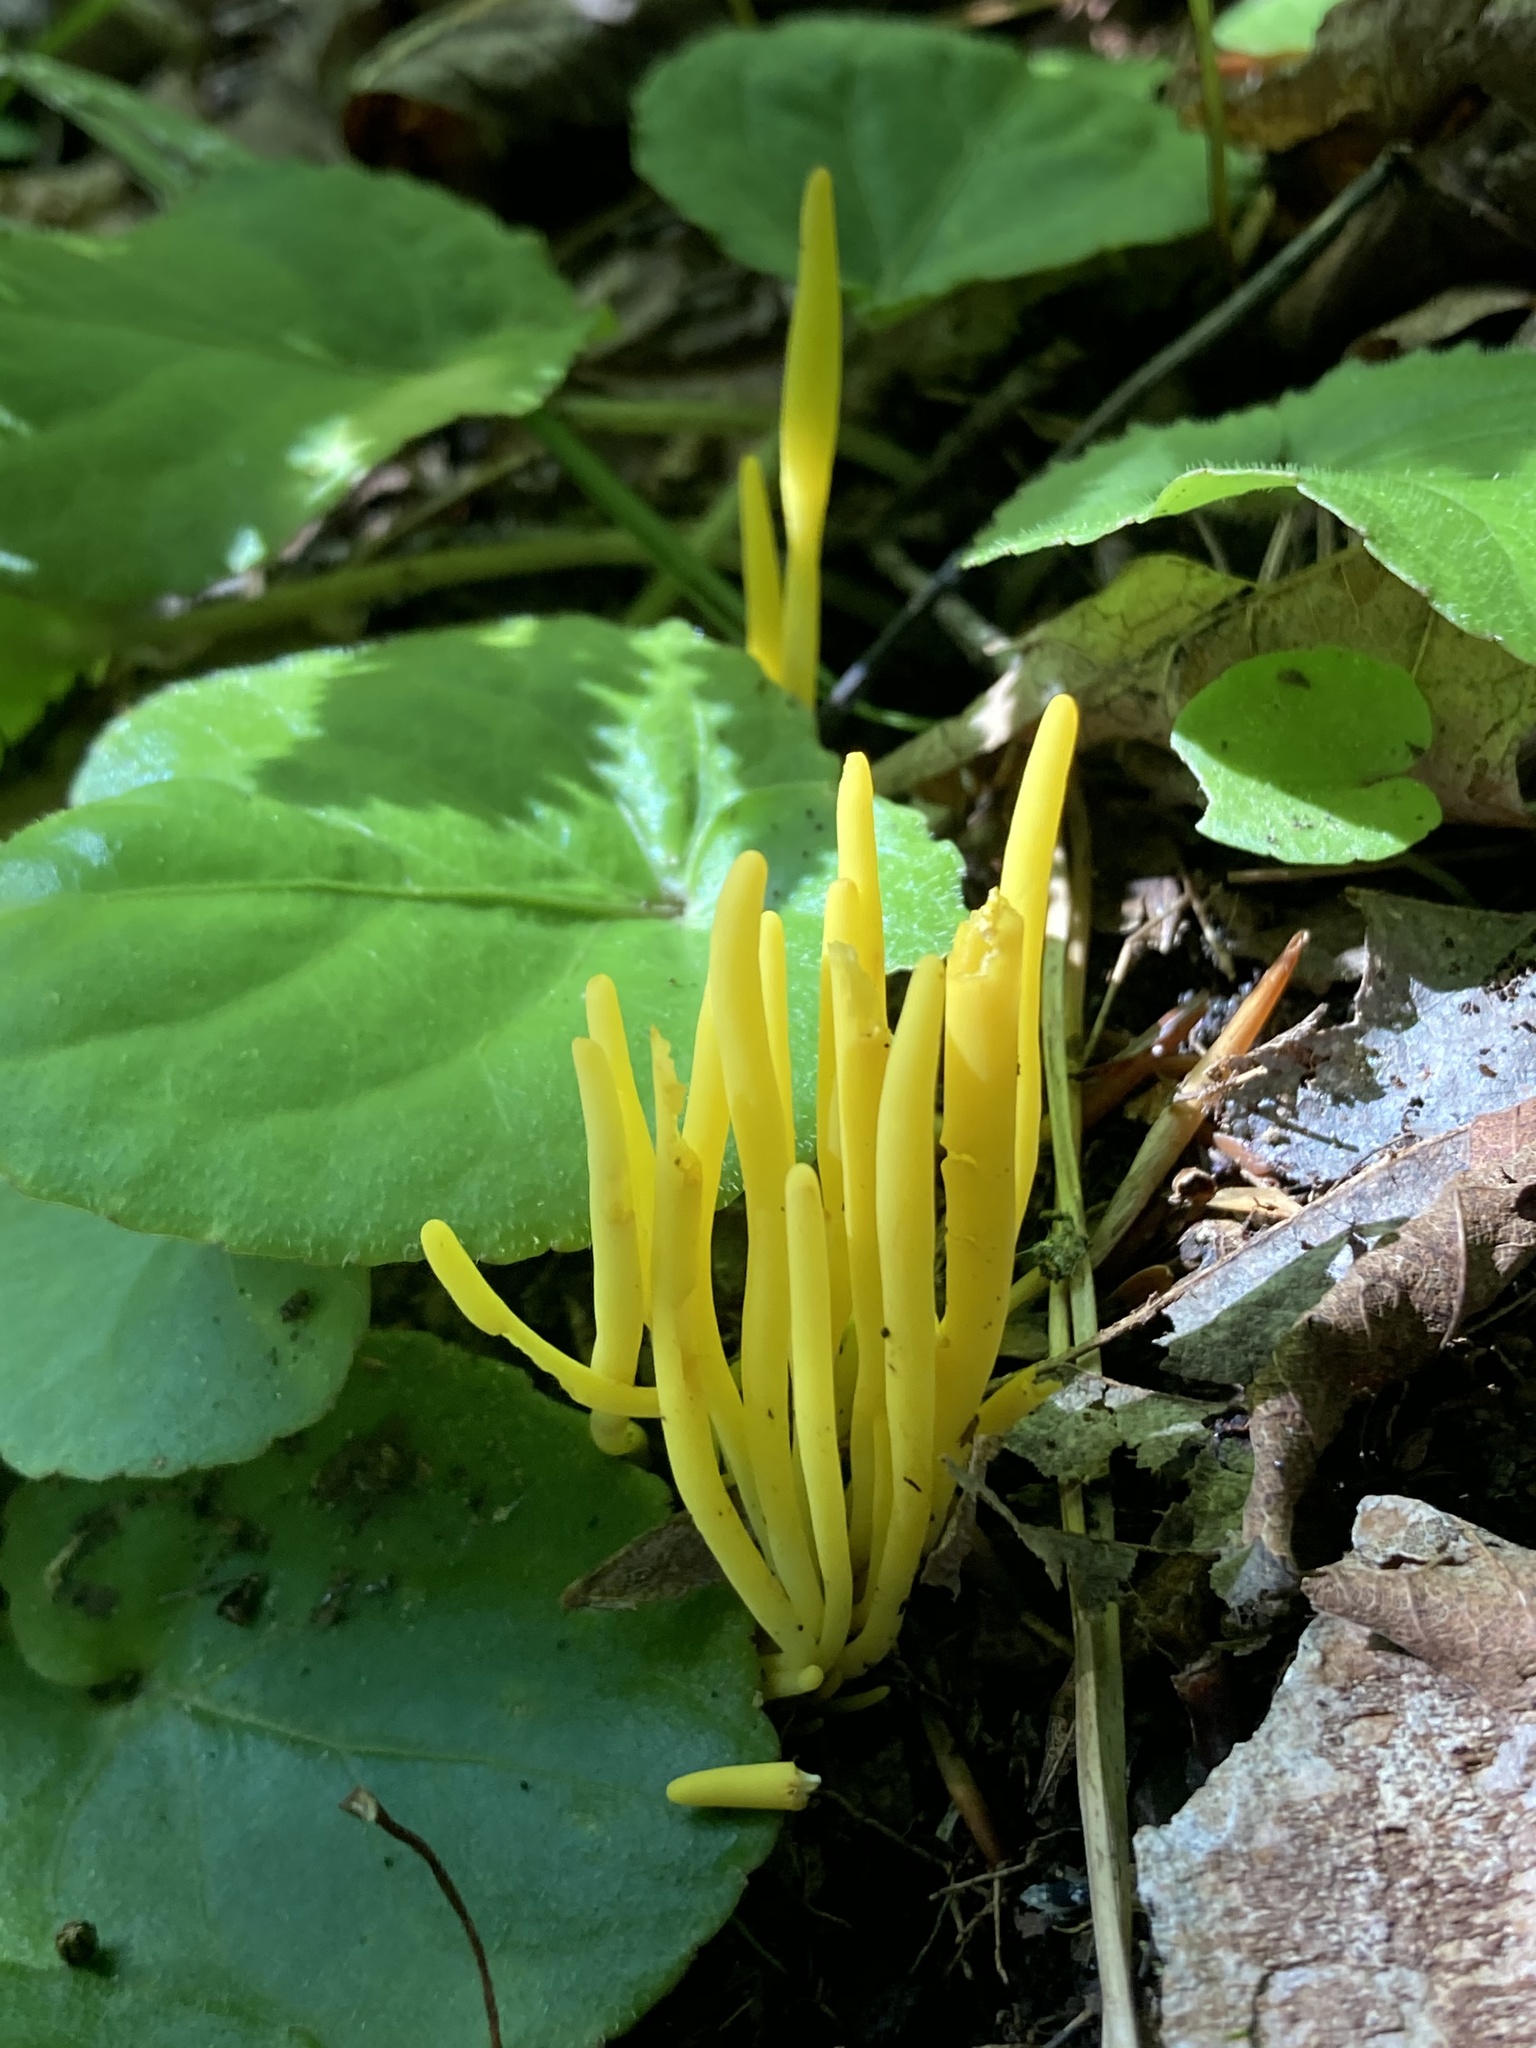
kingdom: Fungi
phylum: Basidiomycota
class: Agaricomycetes
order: Agaricales
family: Clavariaceae
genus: Clavulinopsis
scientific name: Clavulinopsis fusiformis
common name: Golden spindles
